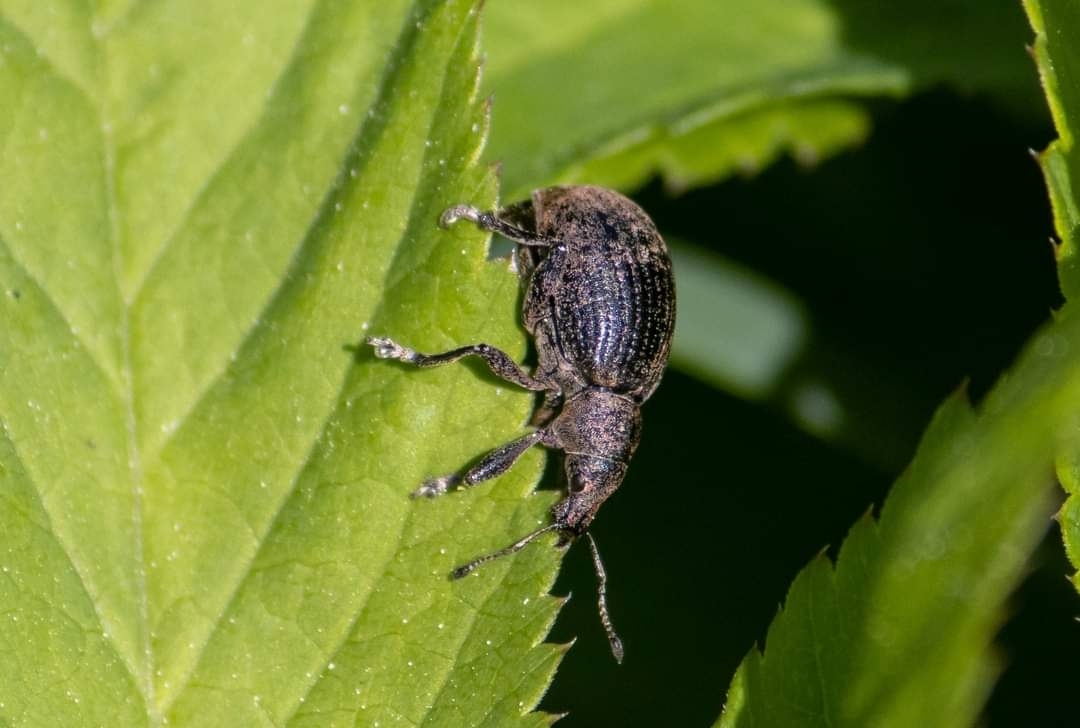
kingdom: Animalia
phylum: Arthropoda
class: Insecta
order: Coleoptera
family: Curculionidae
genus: Liophloeus
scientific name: Liophloeus tessulatus
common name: Weevil
